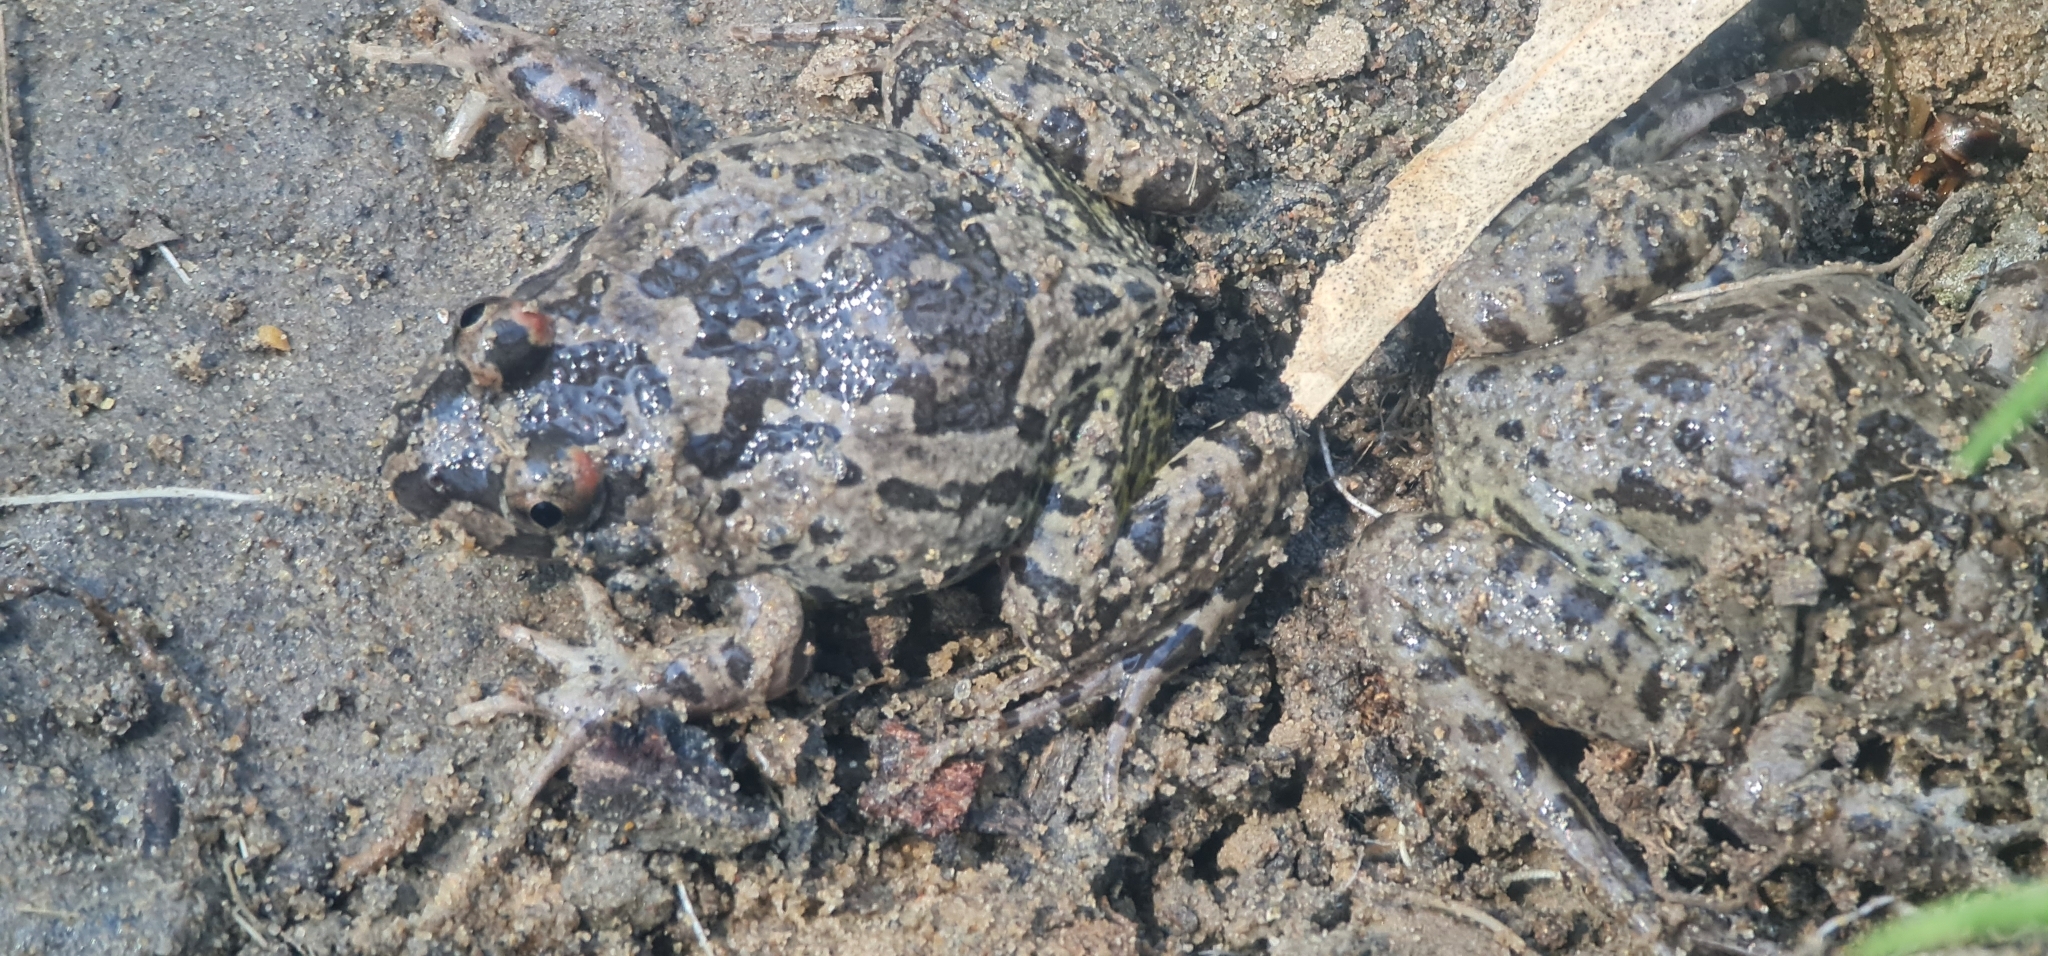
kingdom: Animalia
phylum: Chordata
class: Amphibia
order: Anura
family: Limnodynastidae
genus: Limnodynastes
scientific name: Limnodynastes fletcheri
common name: Barking frog
